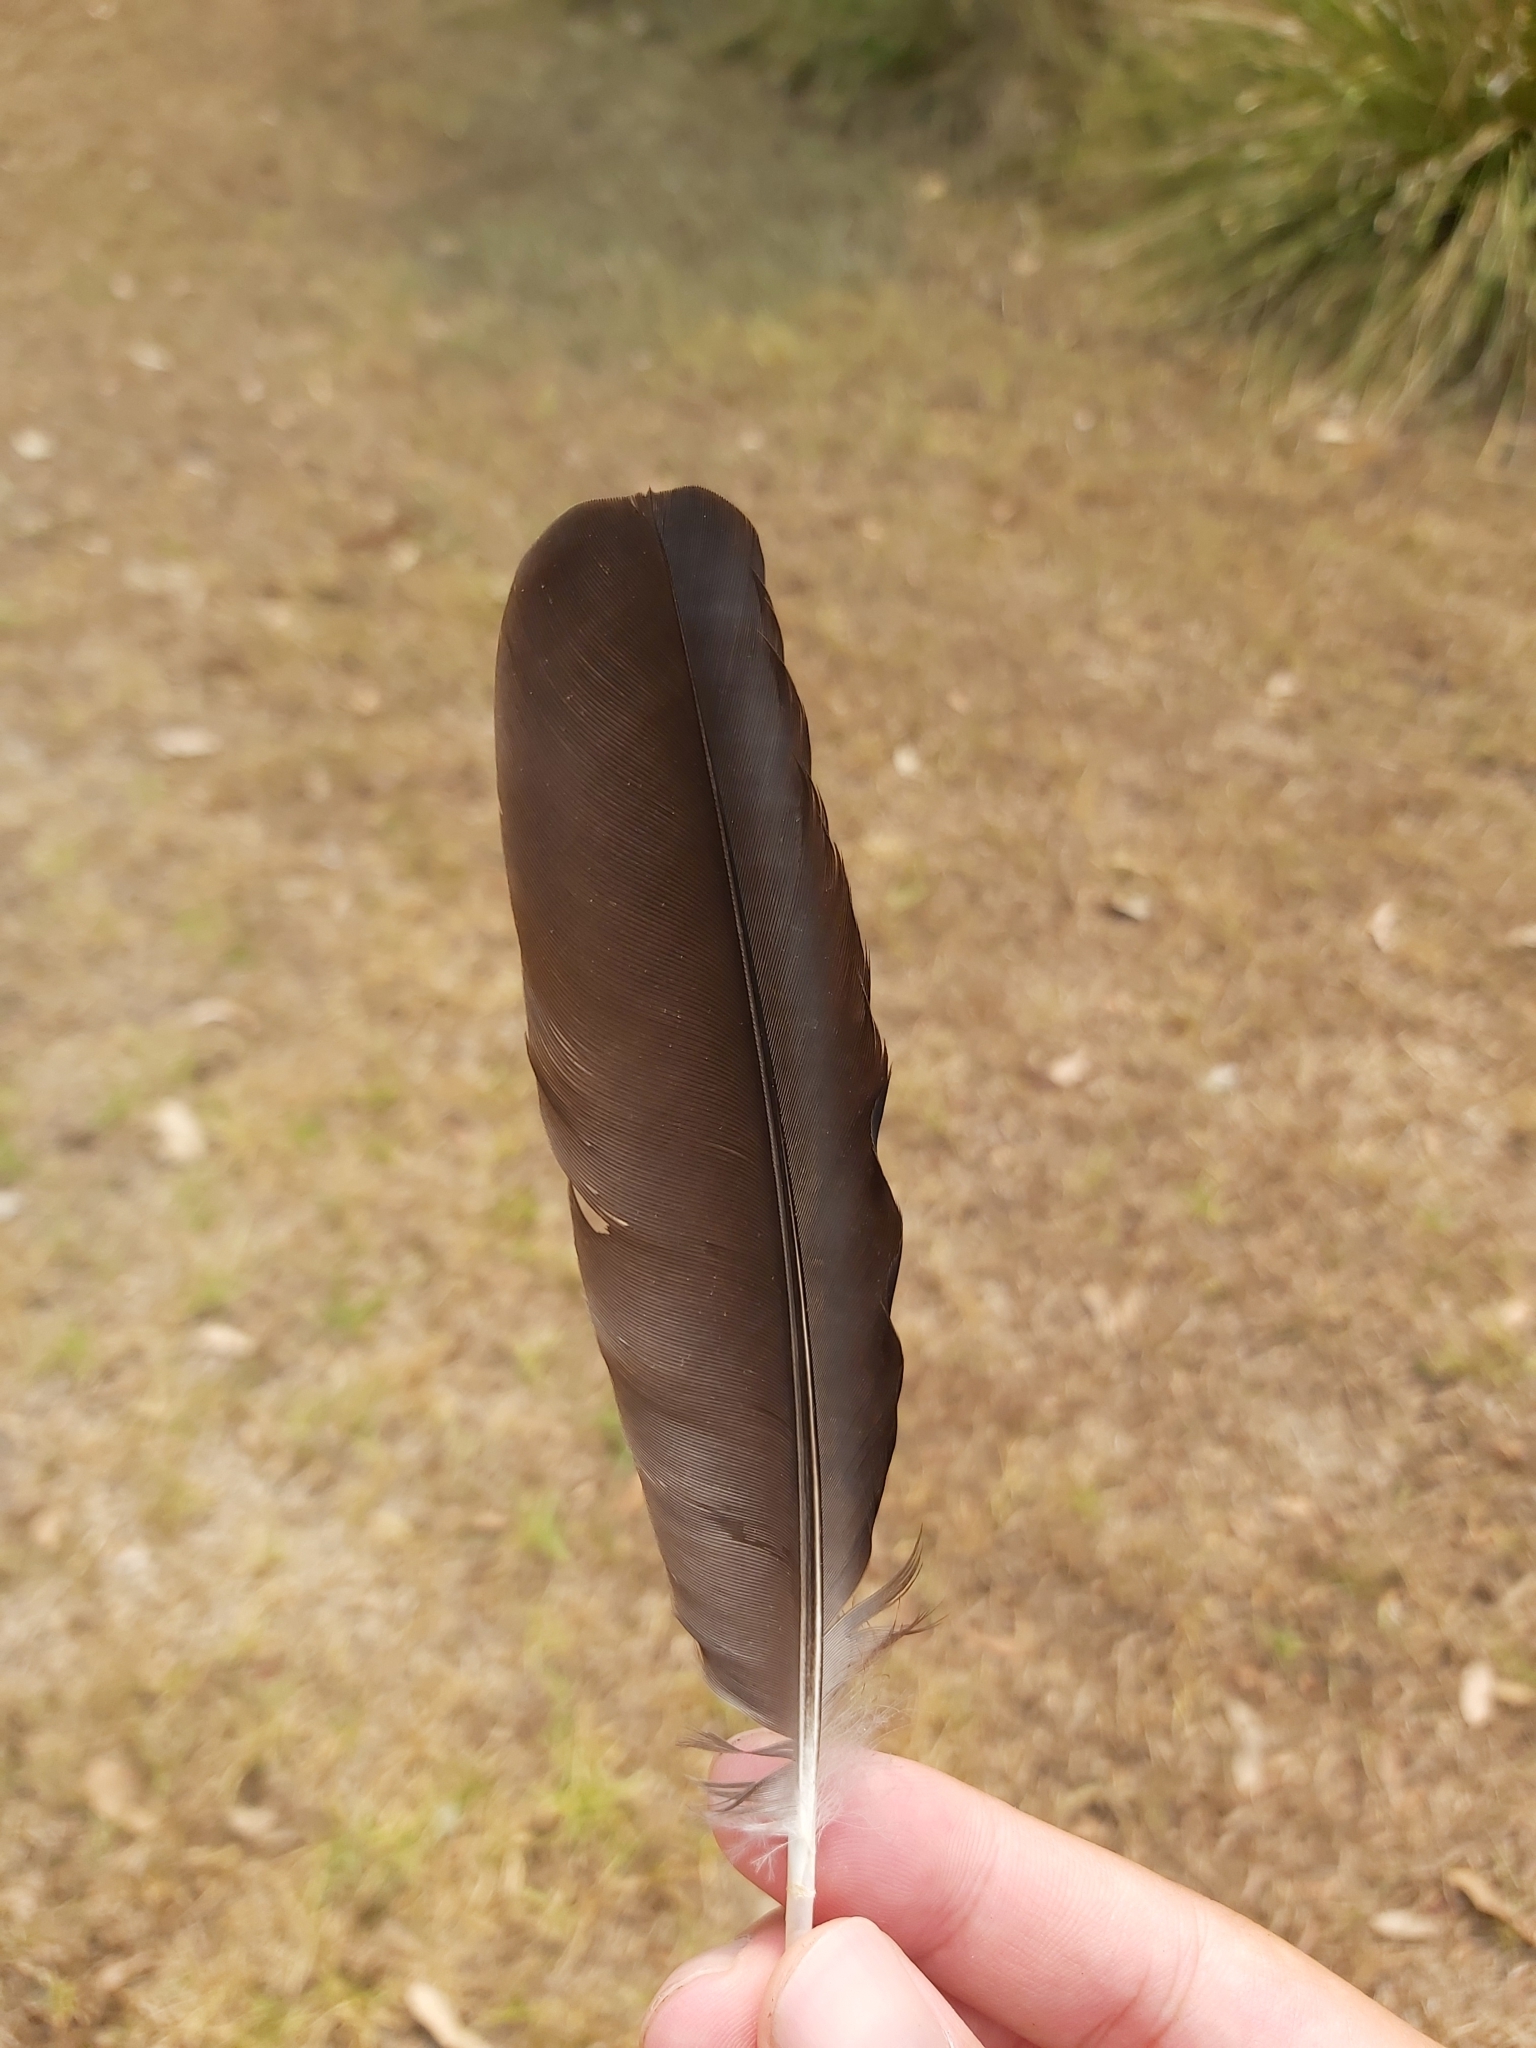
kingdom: Animalia
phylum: Chordata
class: Aves
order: Passeriformes
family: Cracticidae
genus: Gymnorhina
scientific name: Gymnorhina tibicen
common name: Australian magpie
